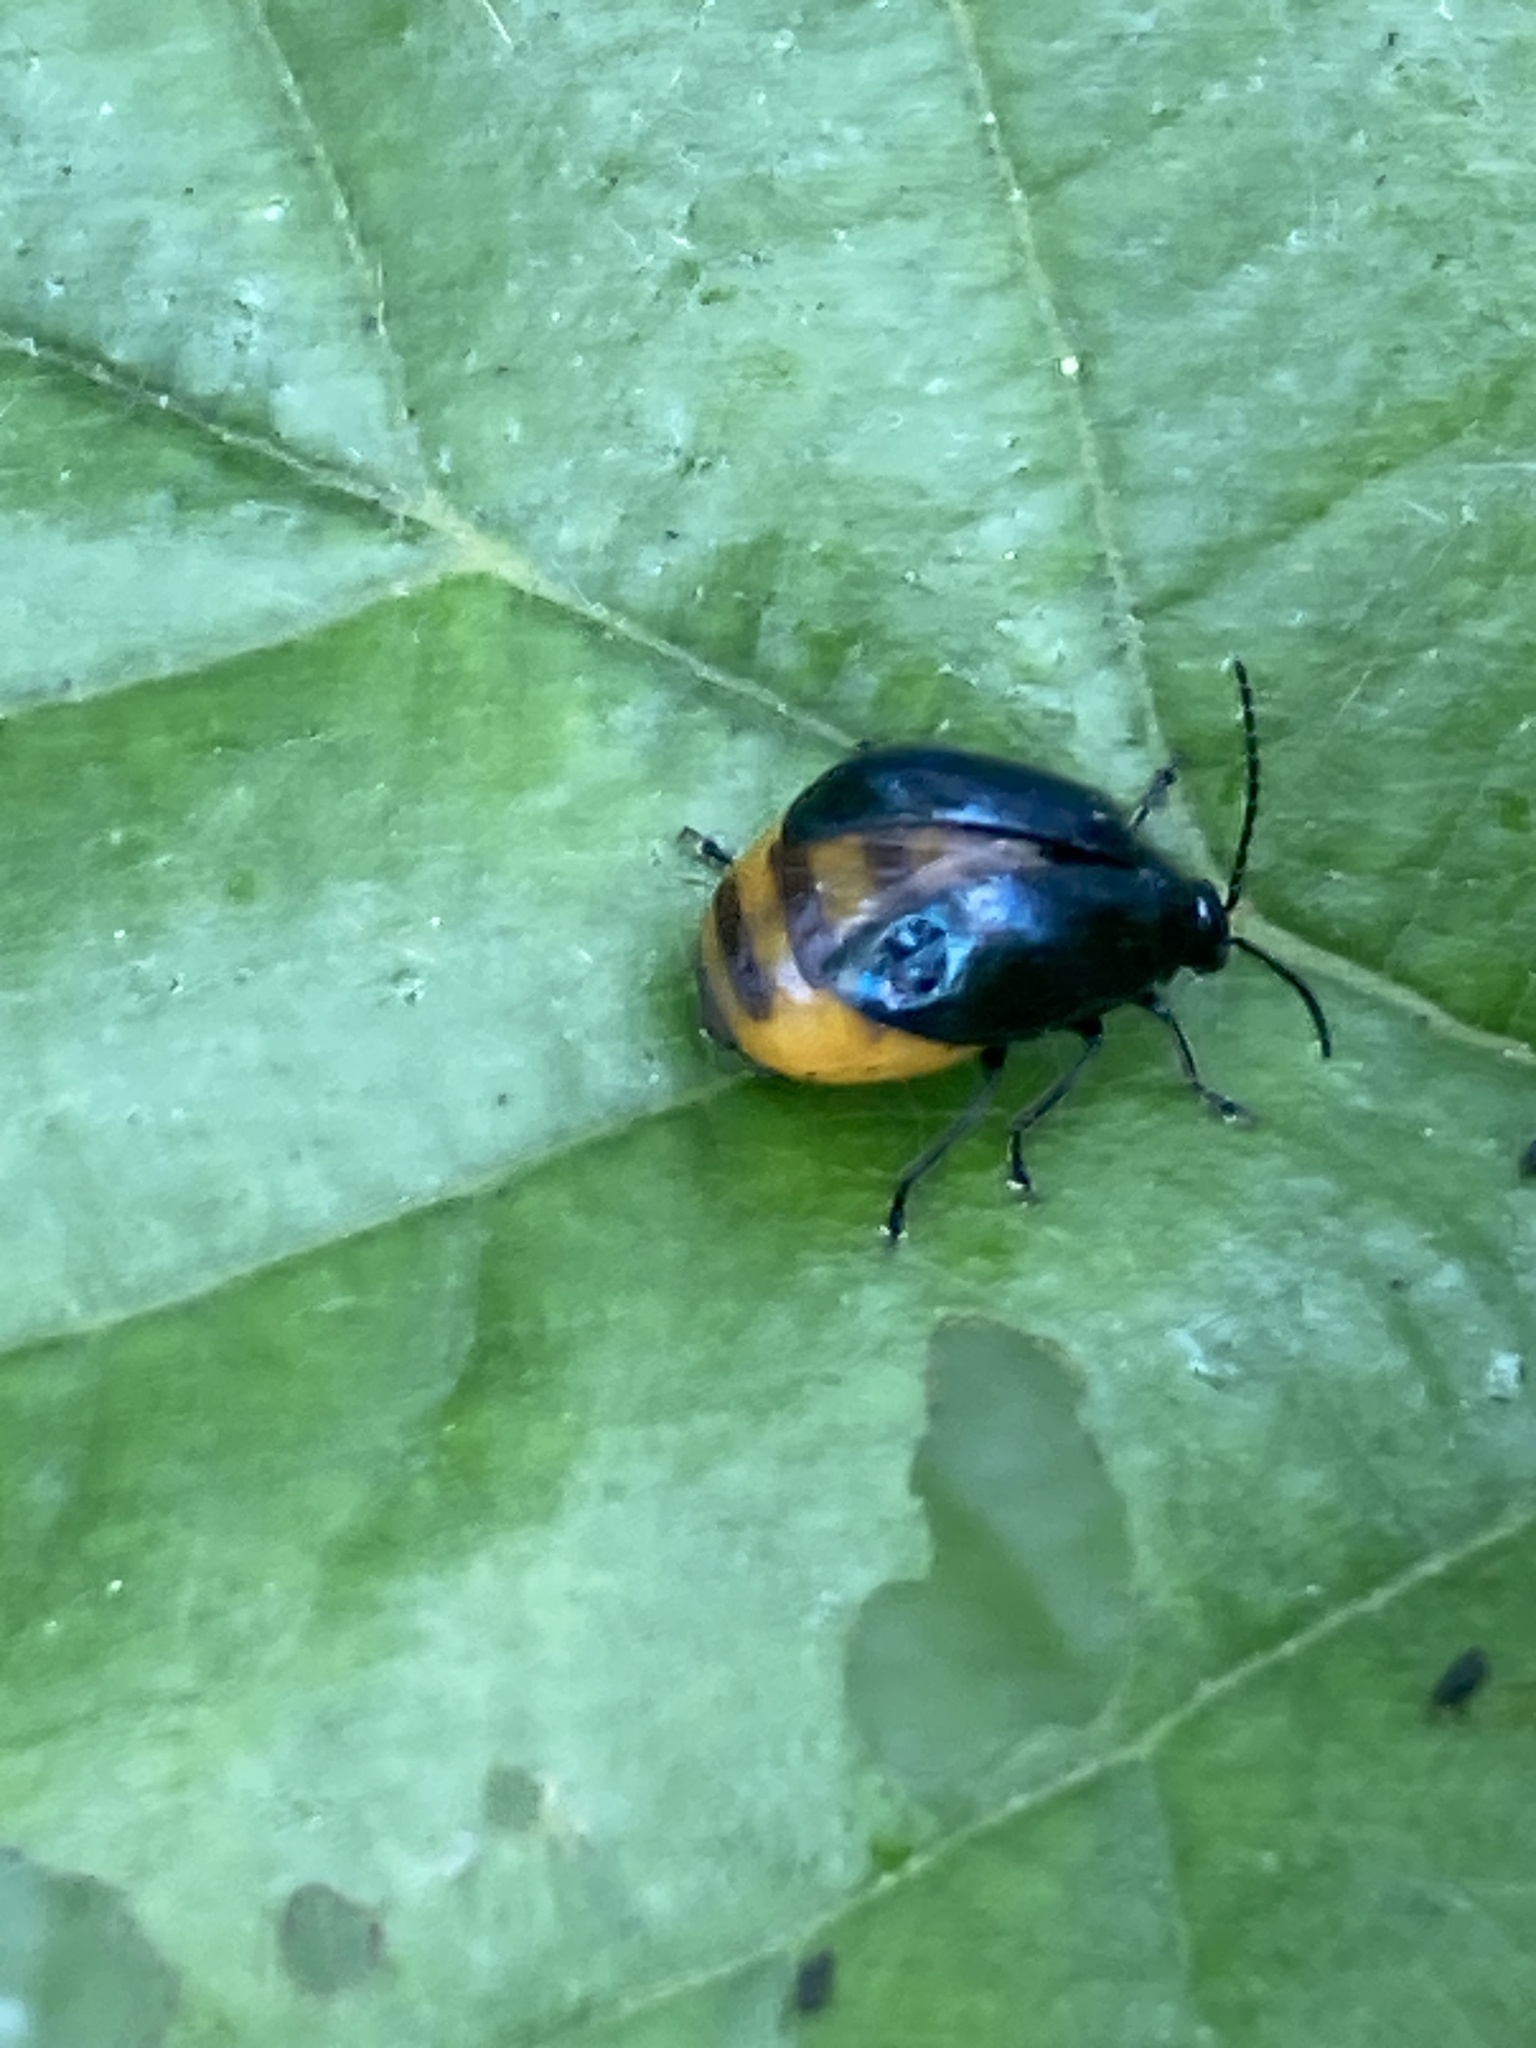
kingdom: Animalia
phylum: Arthropoda
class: Insecta
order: Coleoptera
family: Chrysomelidae
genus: Agelastica
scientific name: Agelastica alni
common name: Alder leaf beetle
